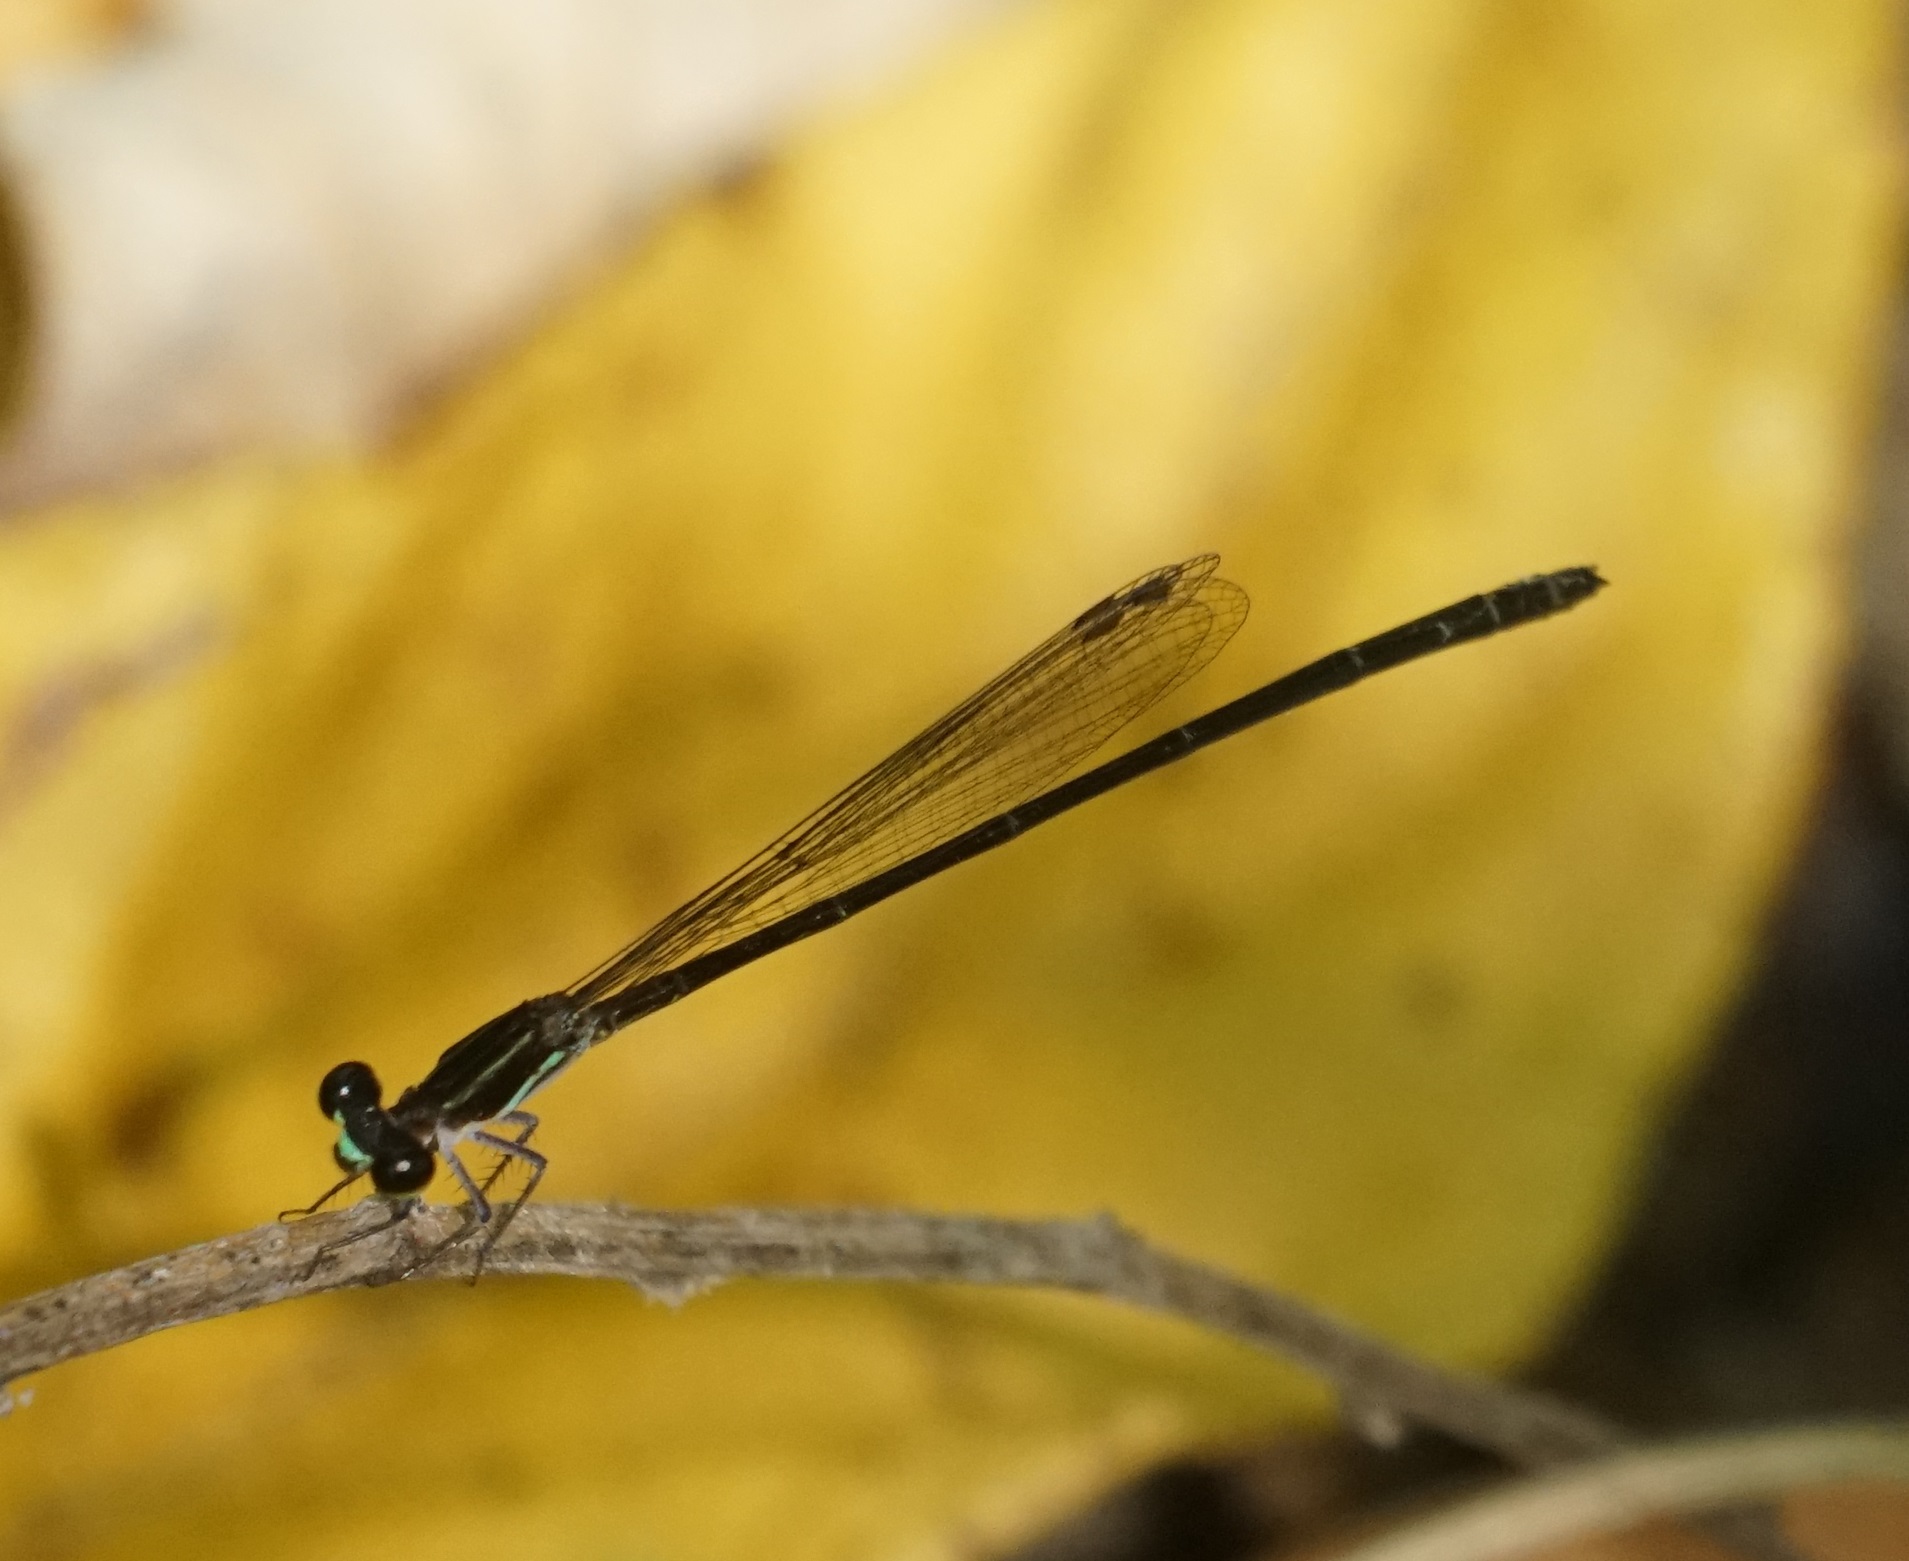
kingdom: Animalia
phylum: Arthropoda
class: Insecta
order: Odonata
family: Coenagrionidae
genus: Argiocnemis
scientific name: Argiocnemis rubescens
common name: Red-tipped shadefly
